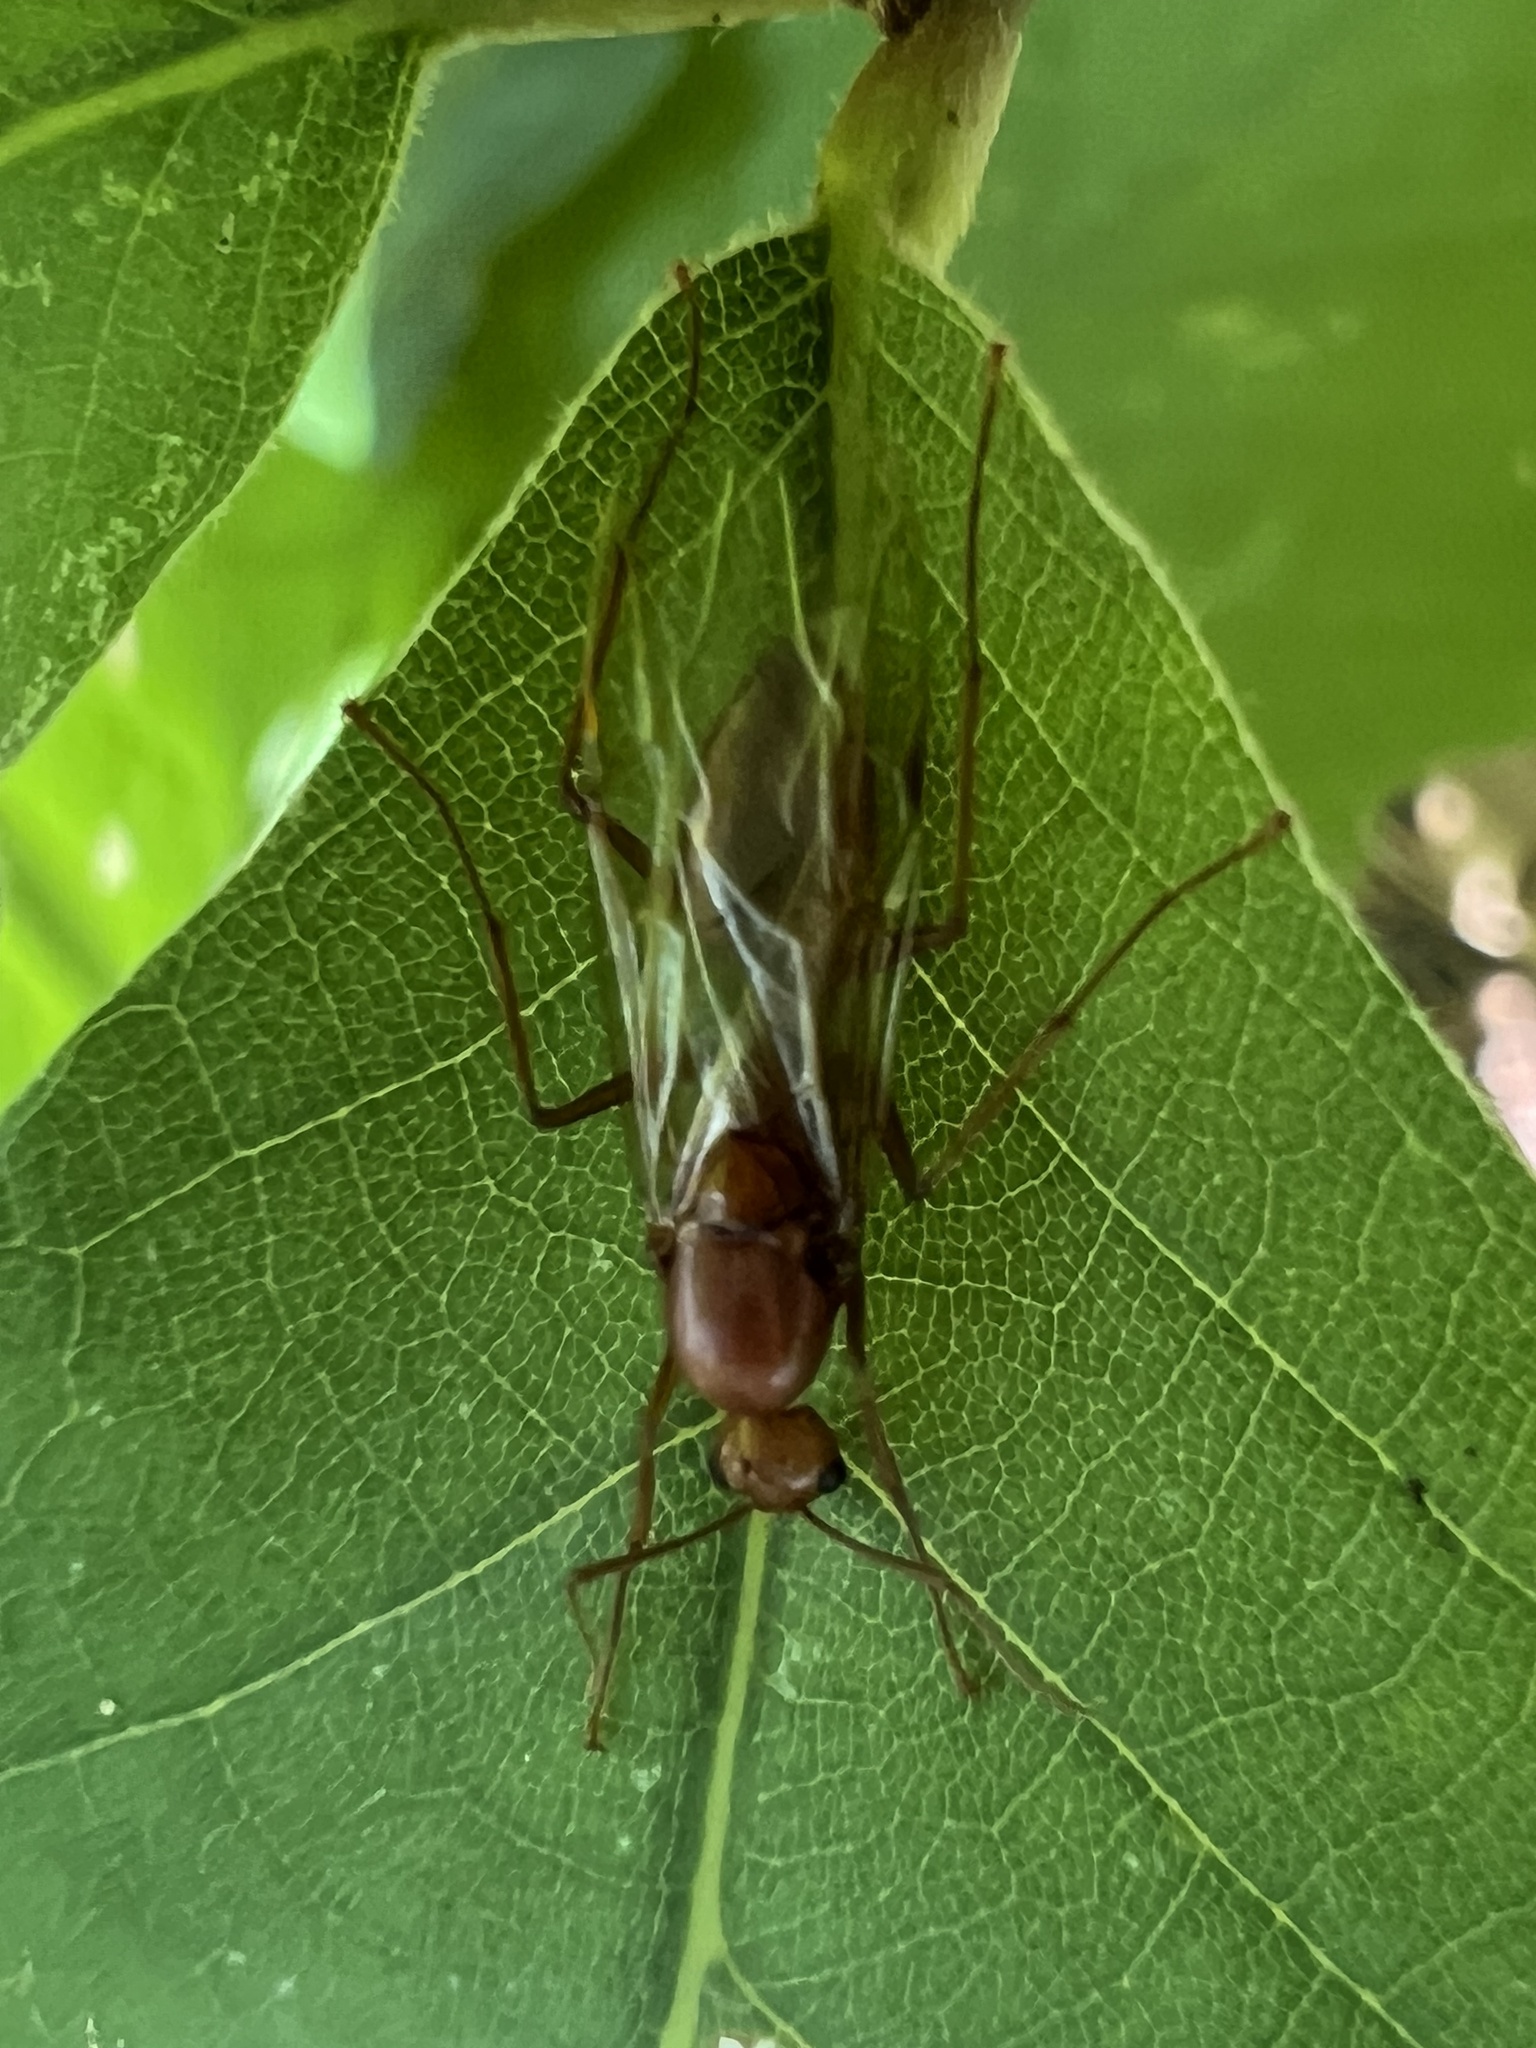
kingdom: Animalia
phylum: Arthropoda
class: Insecta
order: Hymenoptera
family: Formicidae
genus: Camponotus
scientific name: Camponotus castaneus
